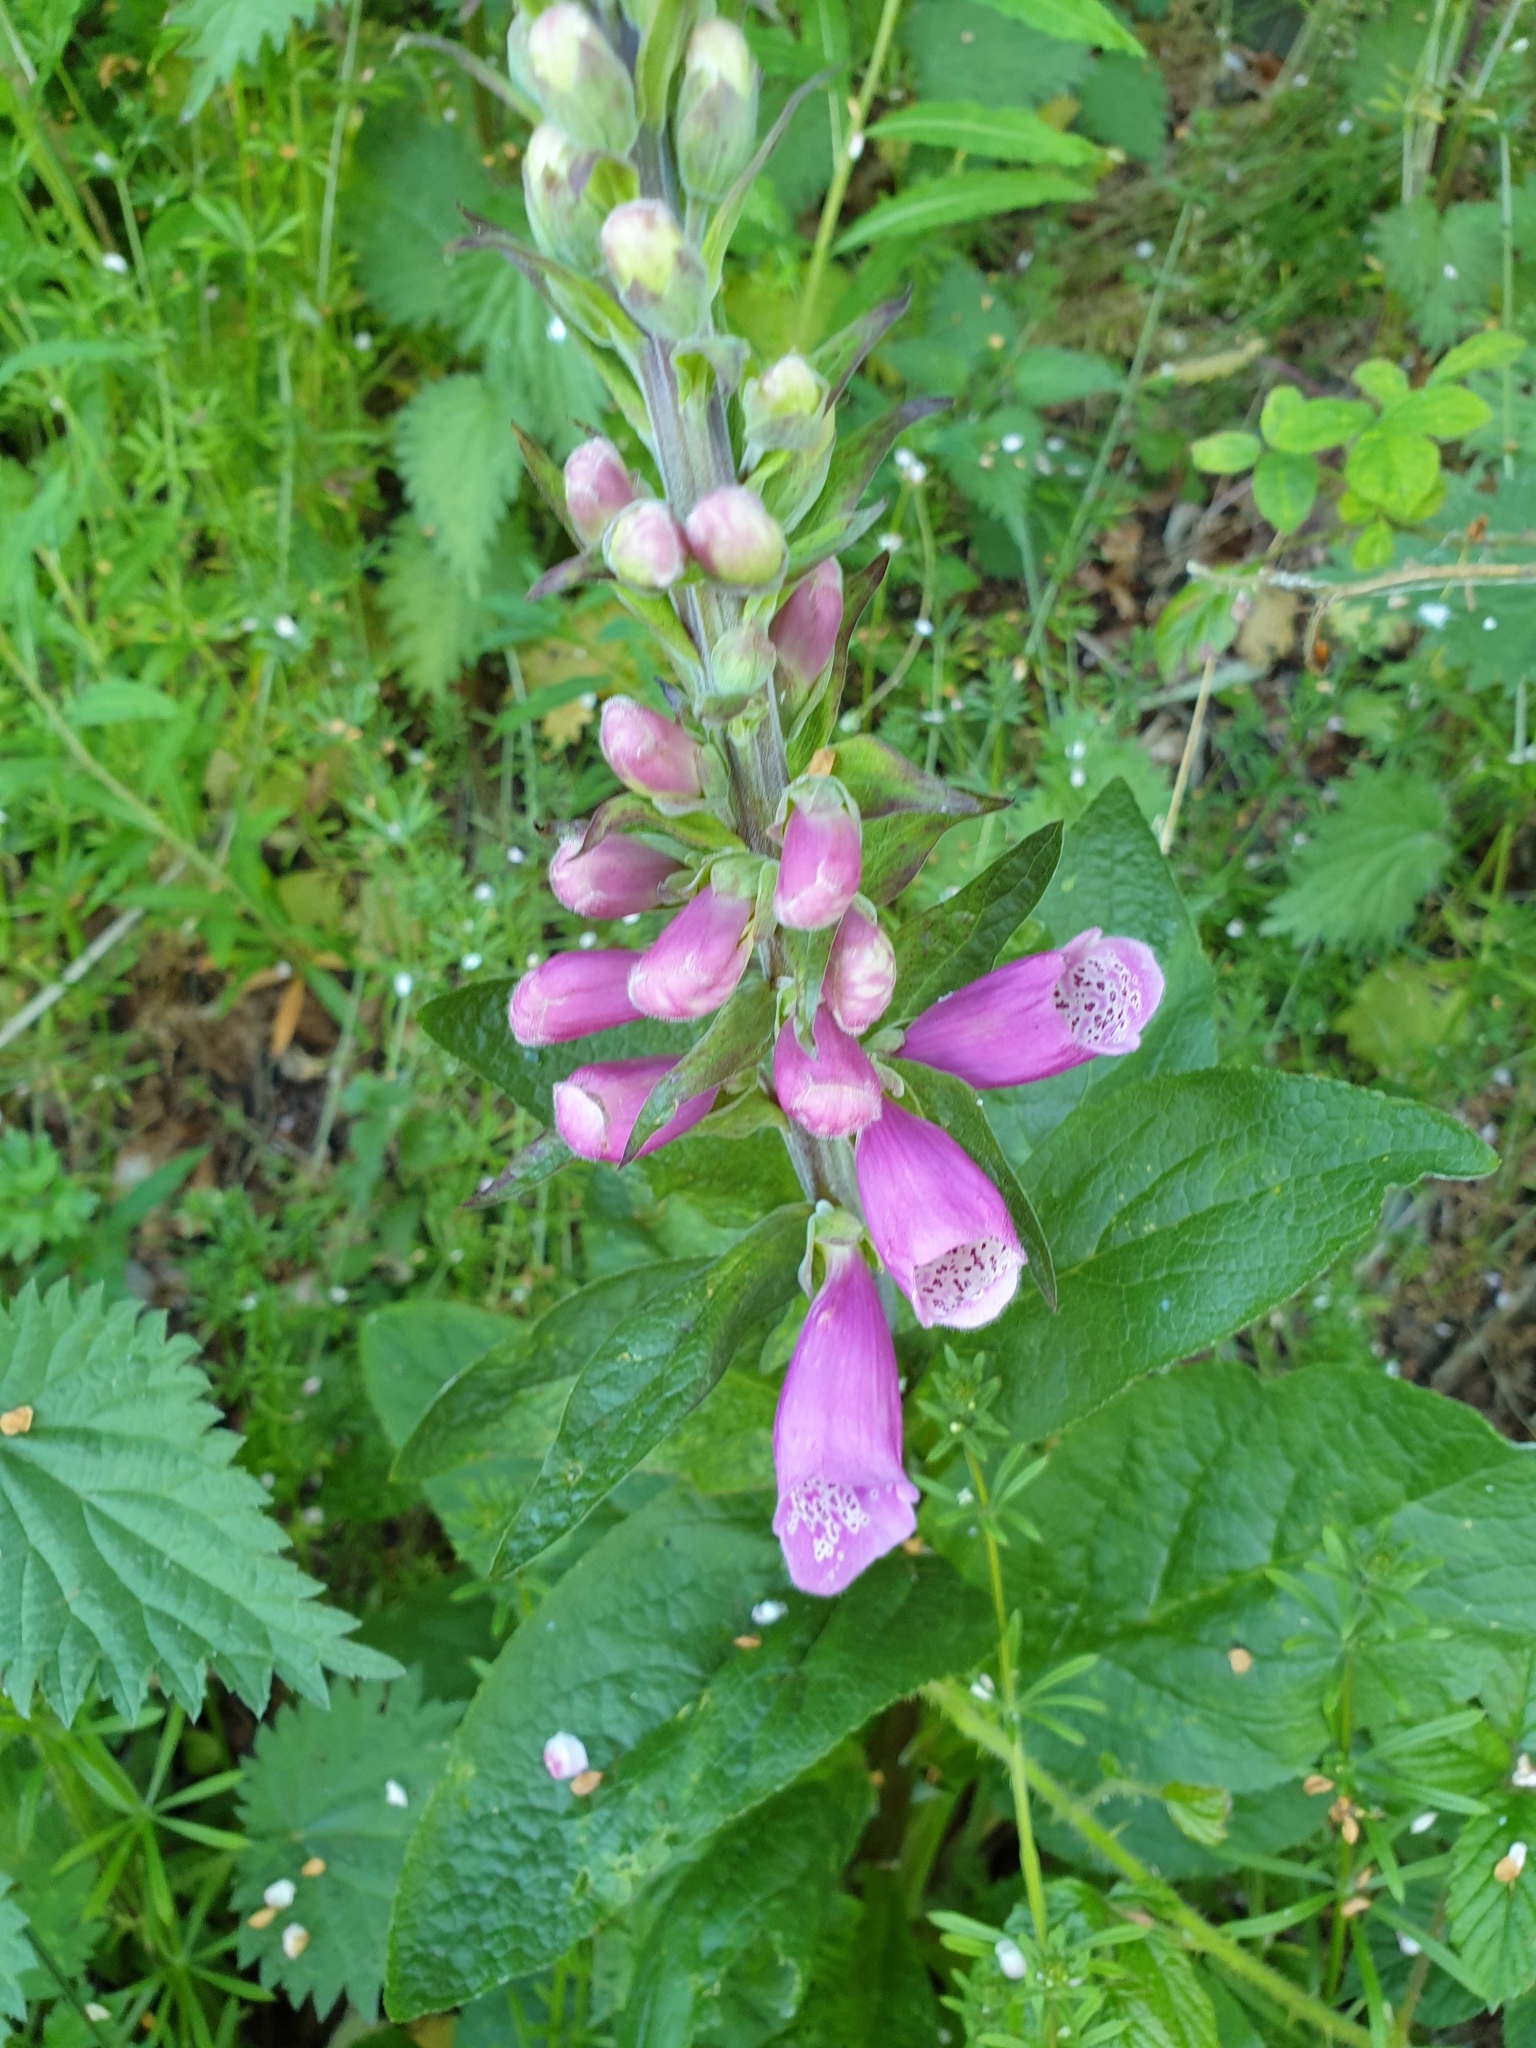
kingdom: Plantae
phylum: Tracheophyta
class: Magnoliopsida
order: Lamiales
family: Plantaginaceae
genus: Digitalis
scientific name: Digitalis purpurea
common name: Foxglove
